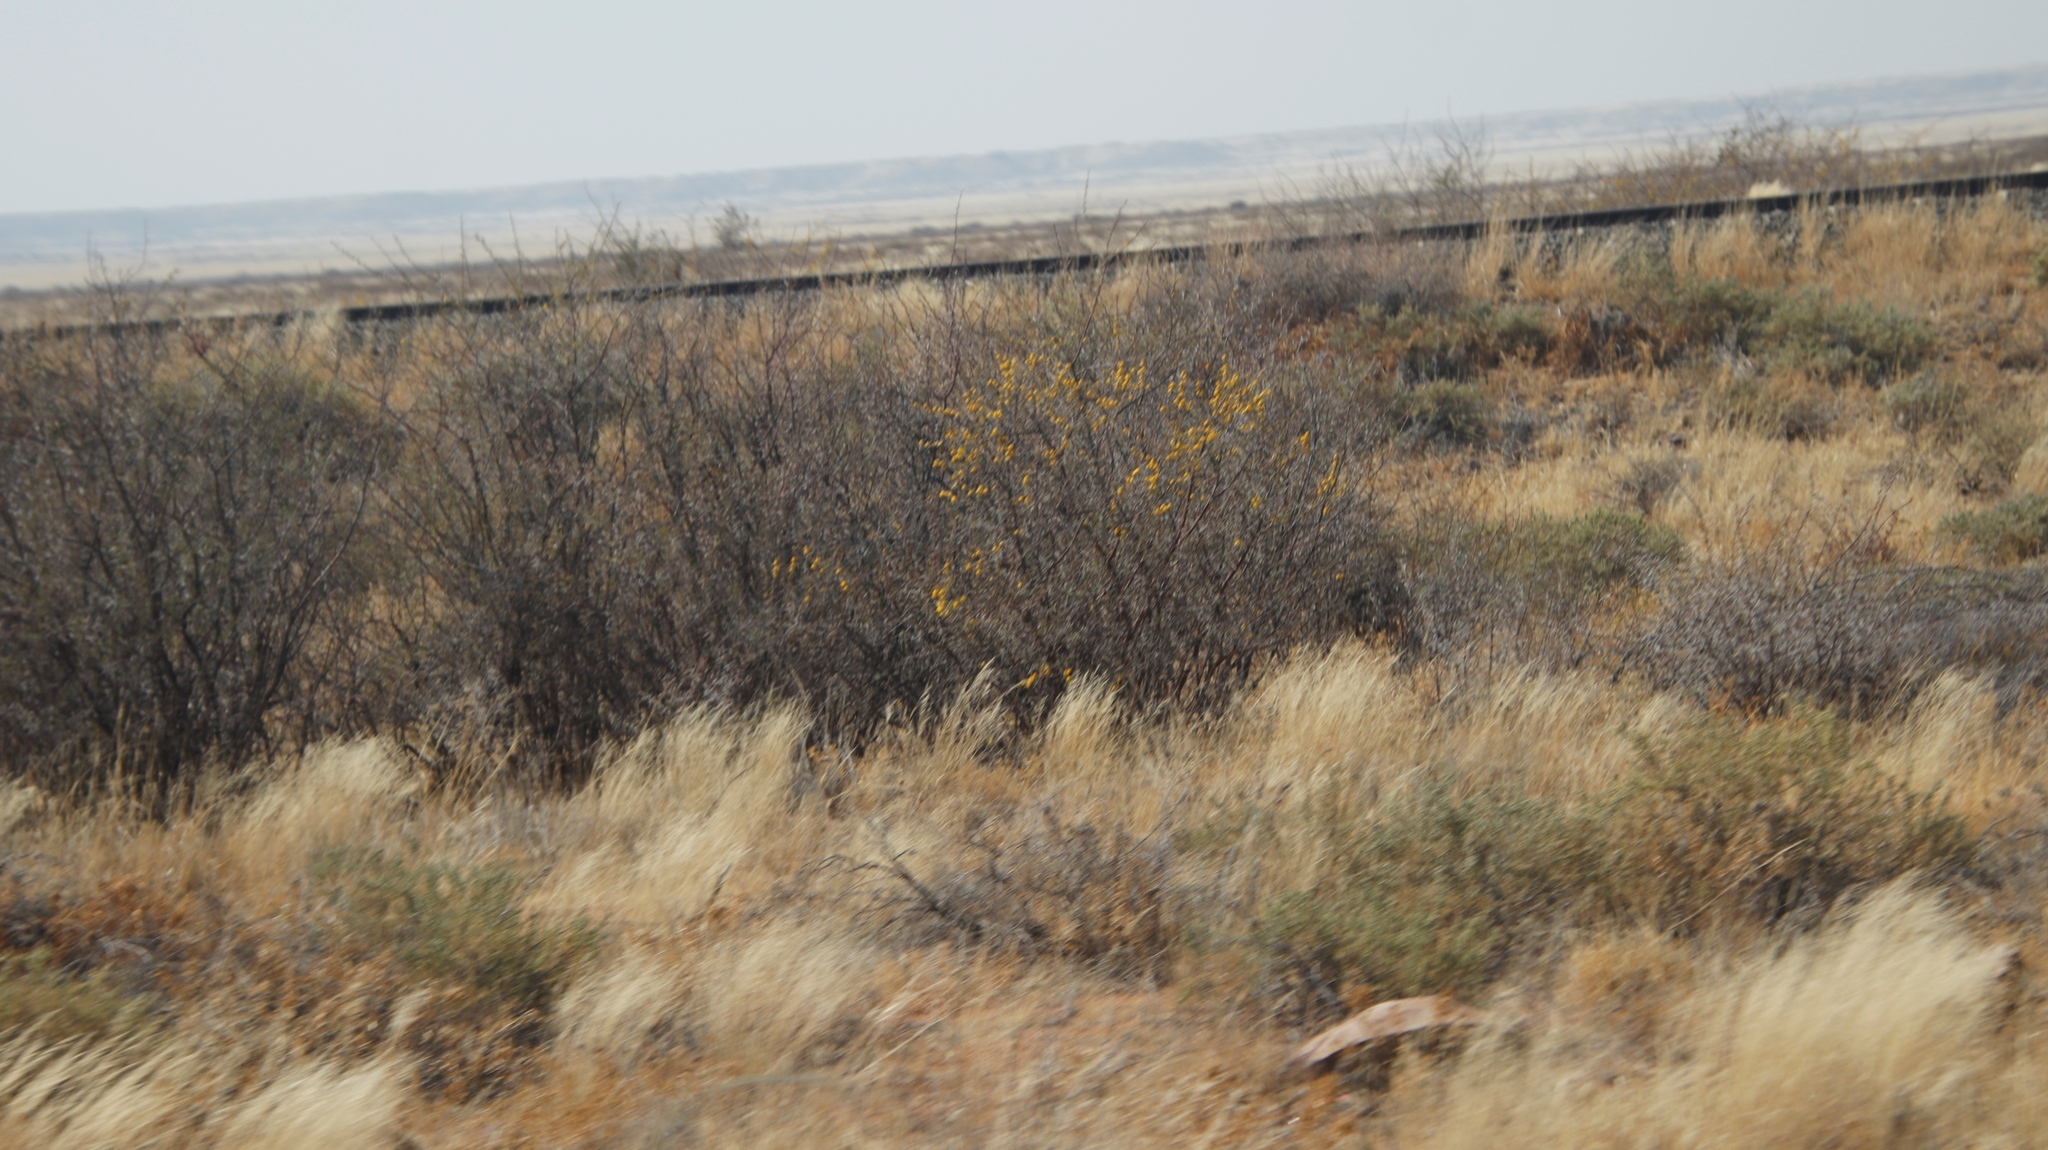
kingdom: Plantae
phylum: Tracheophyta
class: Magnoliopsida
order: Fabales
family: Fabaceae
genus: Vachellia
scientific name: Vachellia nebrownii
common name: Water acacia
